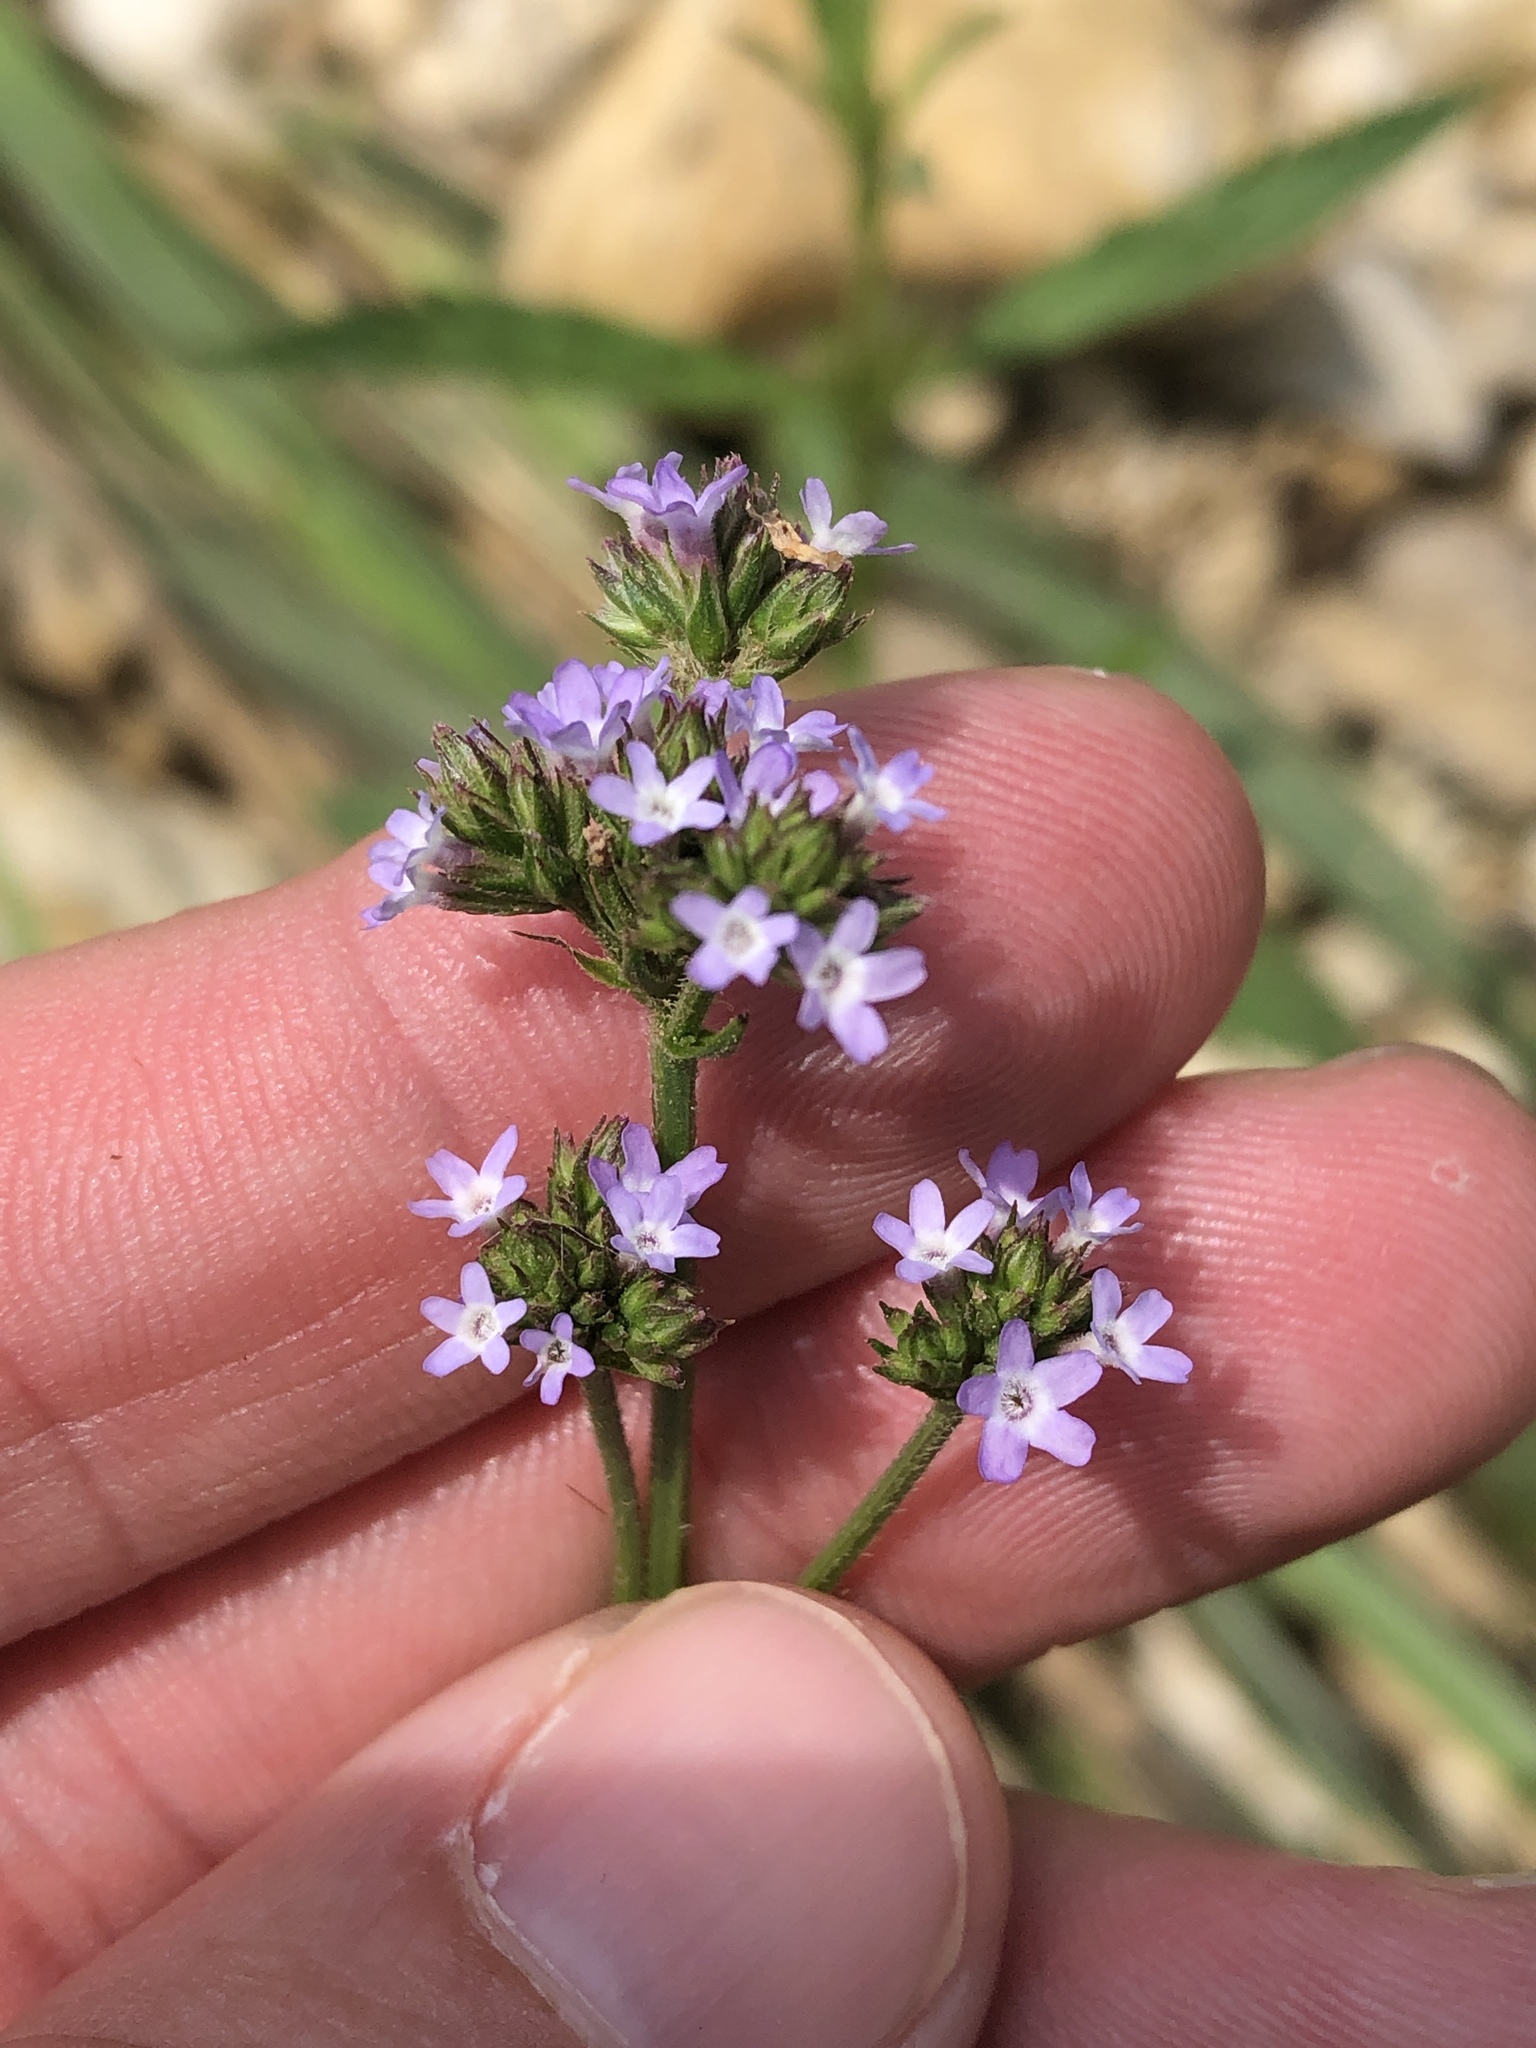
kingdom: Plantae
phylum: Tracheophyta
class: Magnoliopsida
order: Lamiales
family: Verbenaceae
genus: Verbena
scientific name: Verbena brasiliensis
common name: Brazilian vervain
